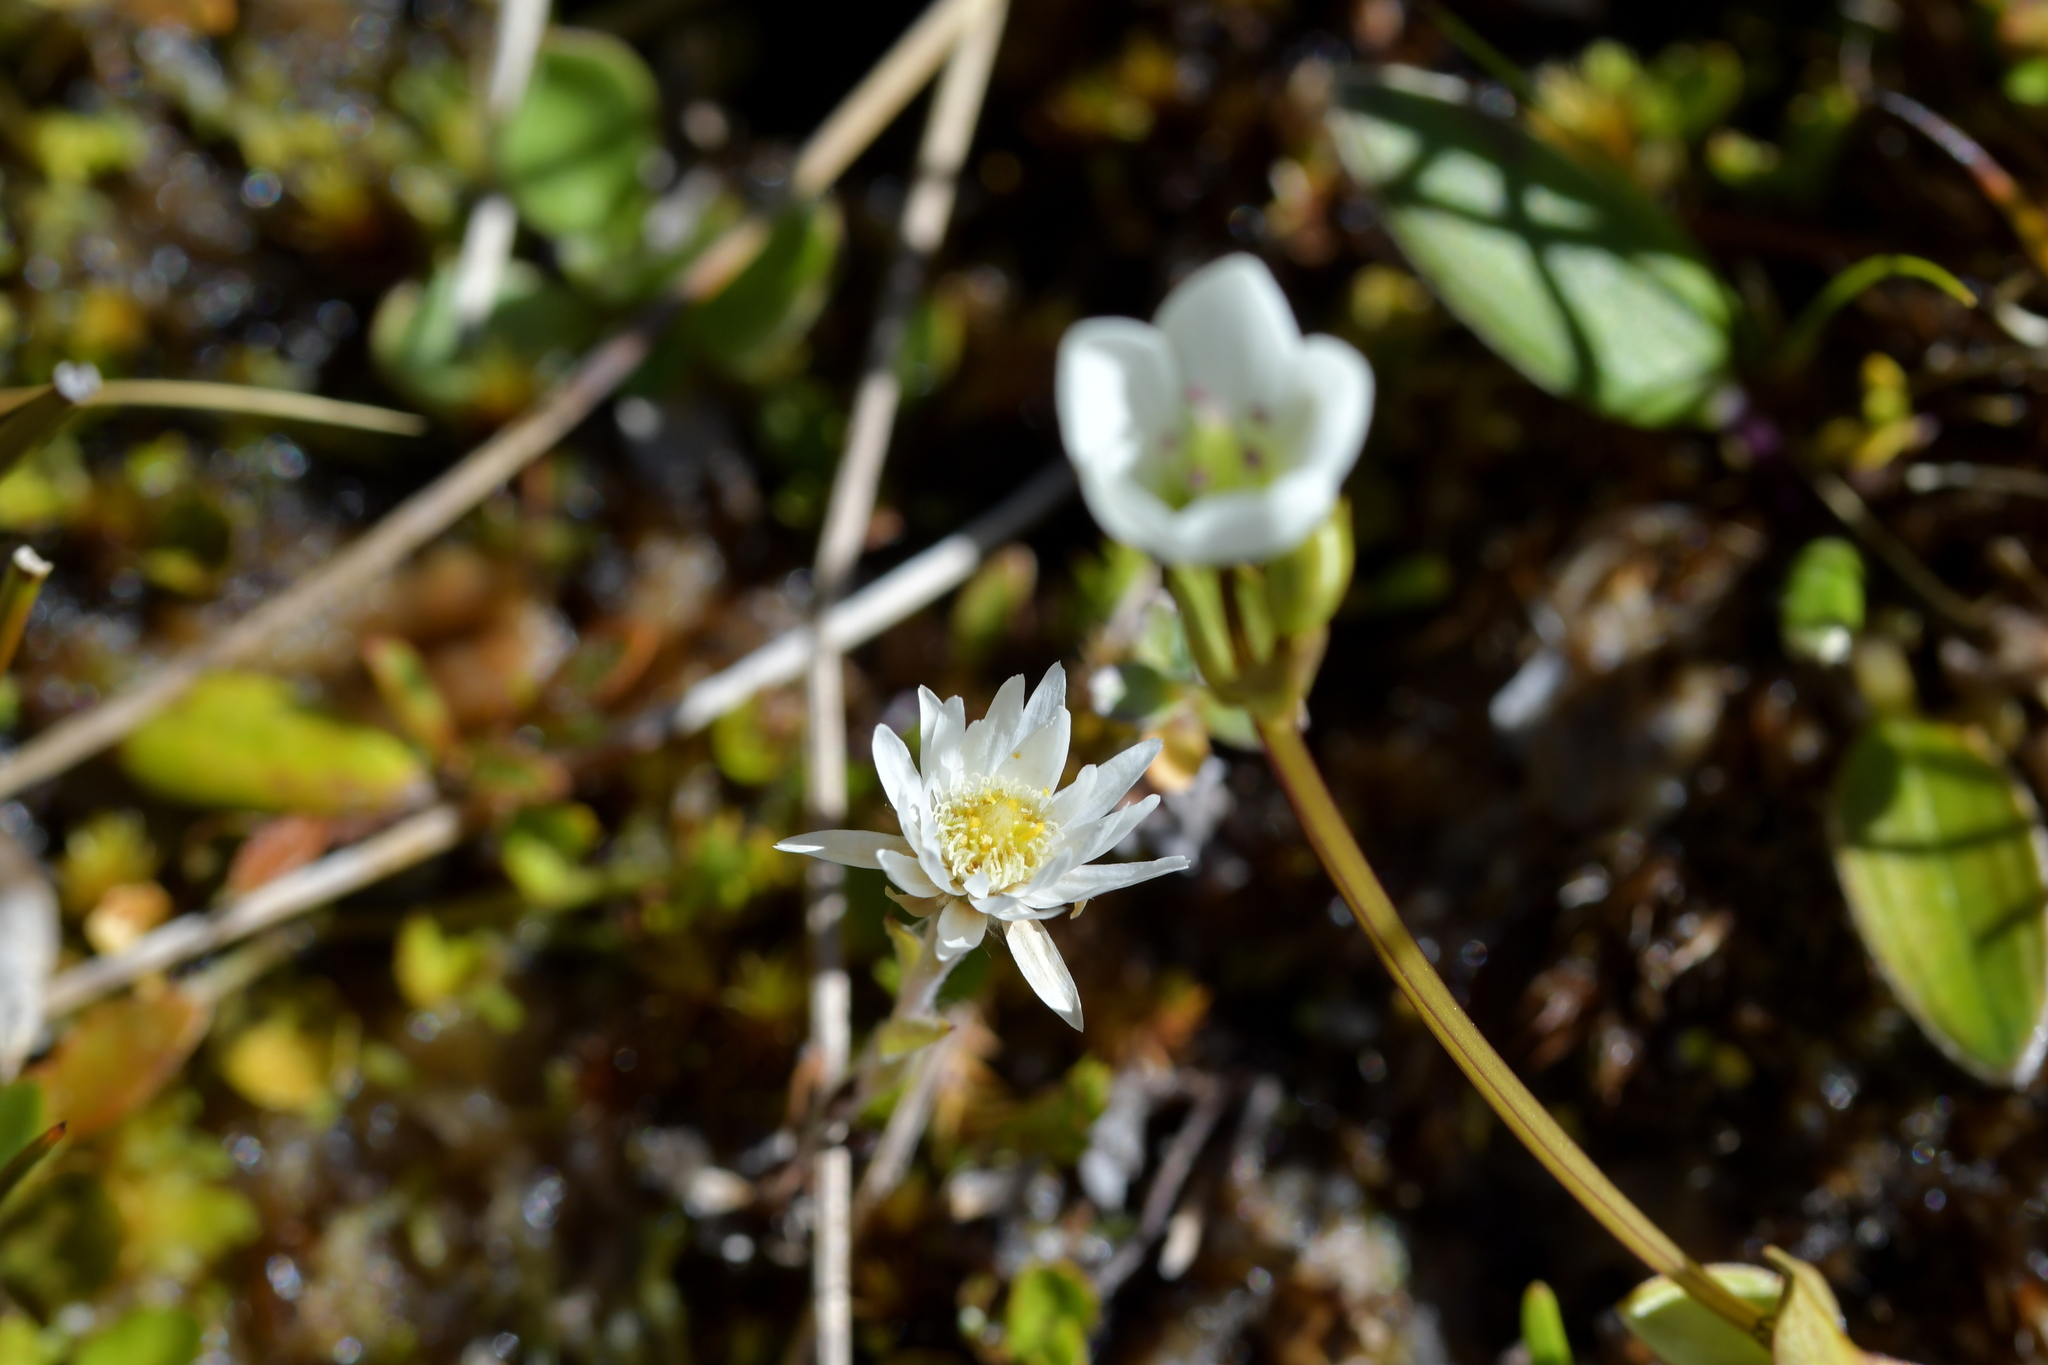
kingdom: Plantae
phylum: Tracheophyta
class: Magnoliopsida
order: Asterales
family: Asteraceae
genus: Anaphalioides
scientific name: Anaphalioides bellidioides
